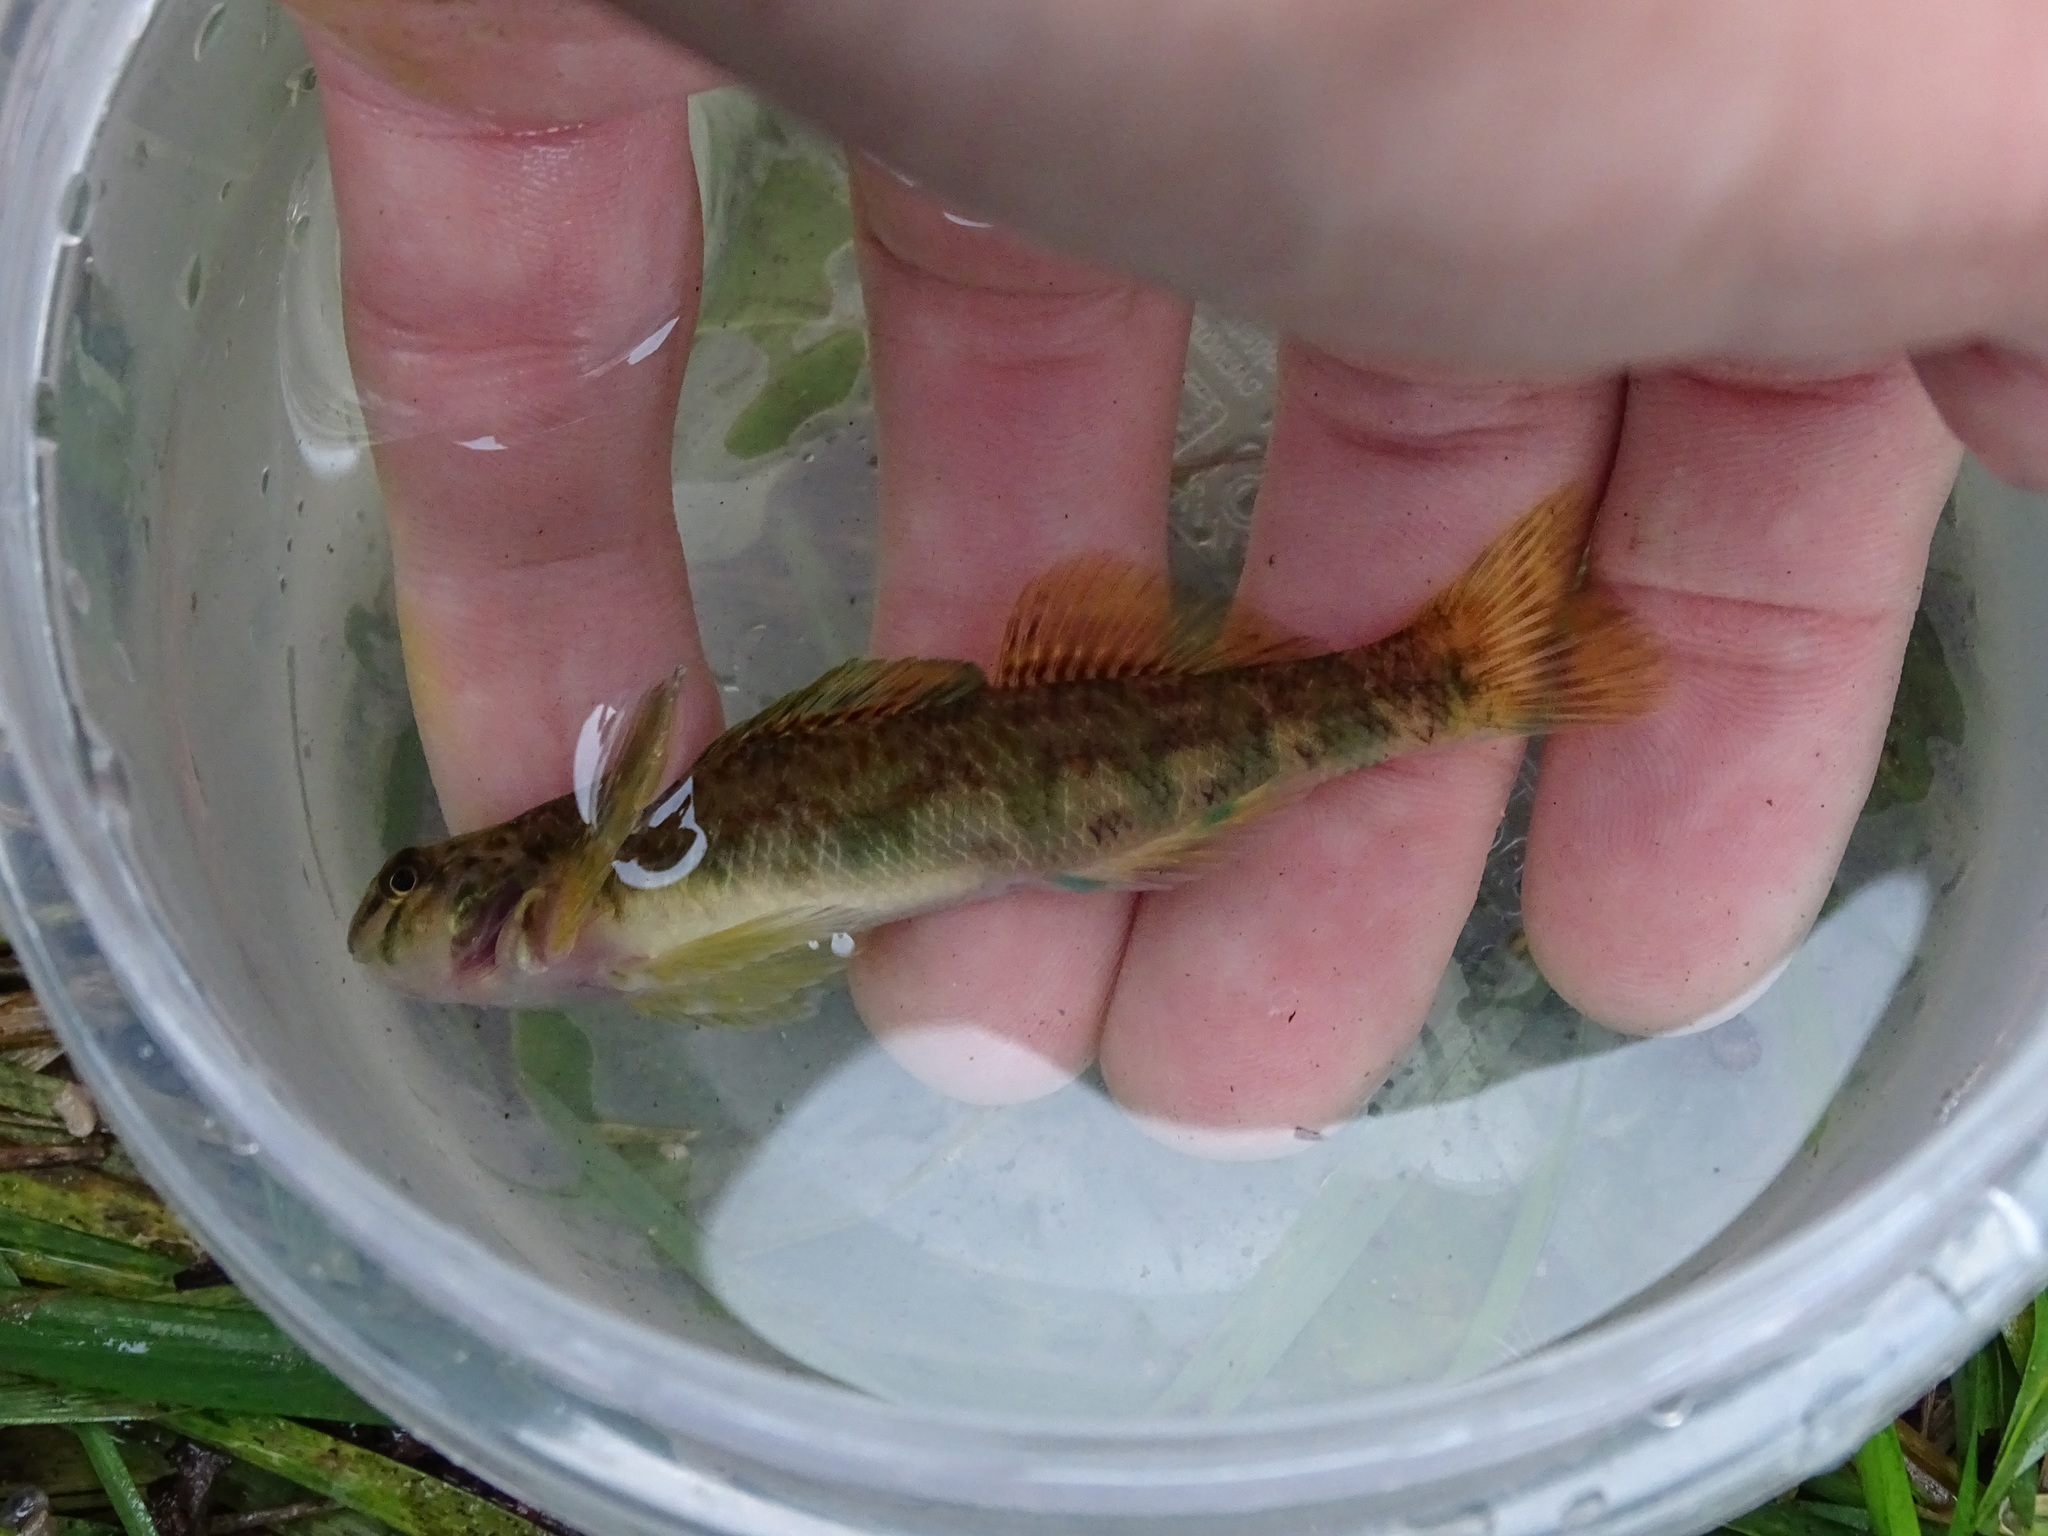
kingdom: Animalia
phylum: Chordata
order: Perciformes
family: Percidae
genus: Etheostoma
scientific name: Etheostoma blennioides
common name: Greenside darter
